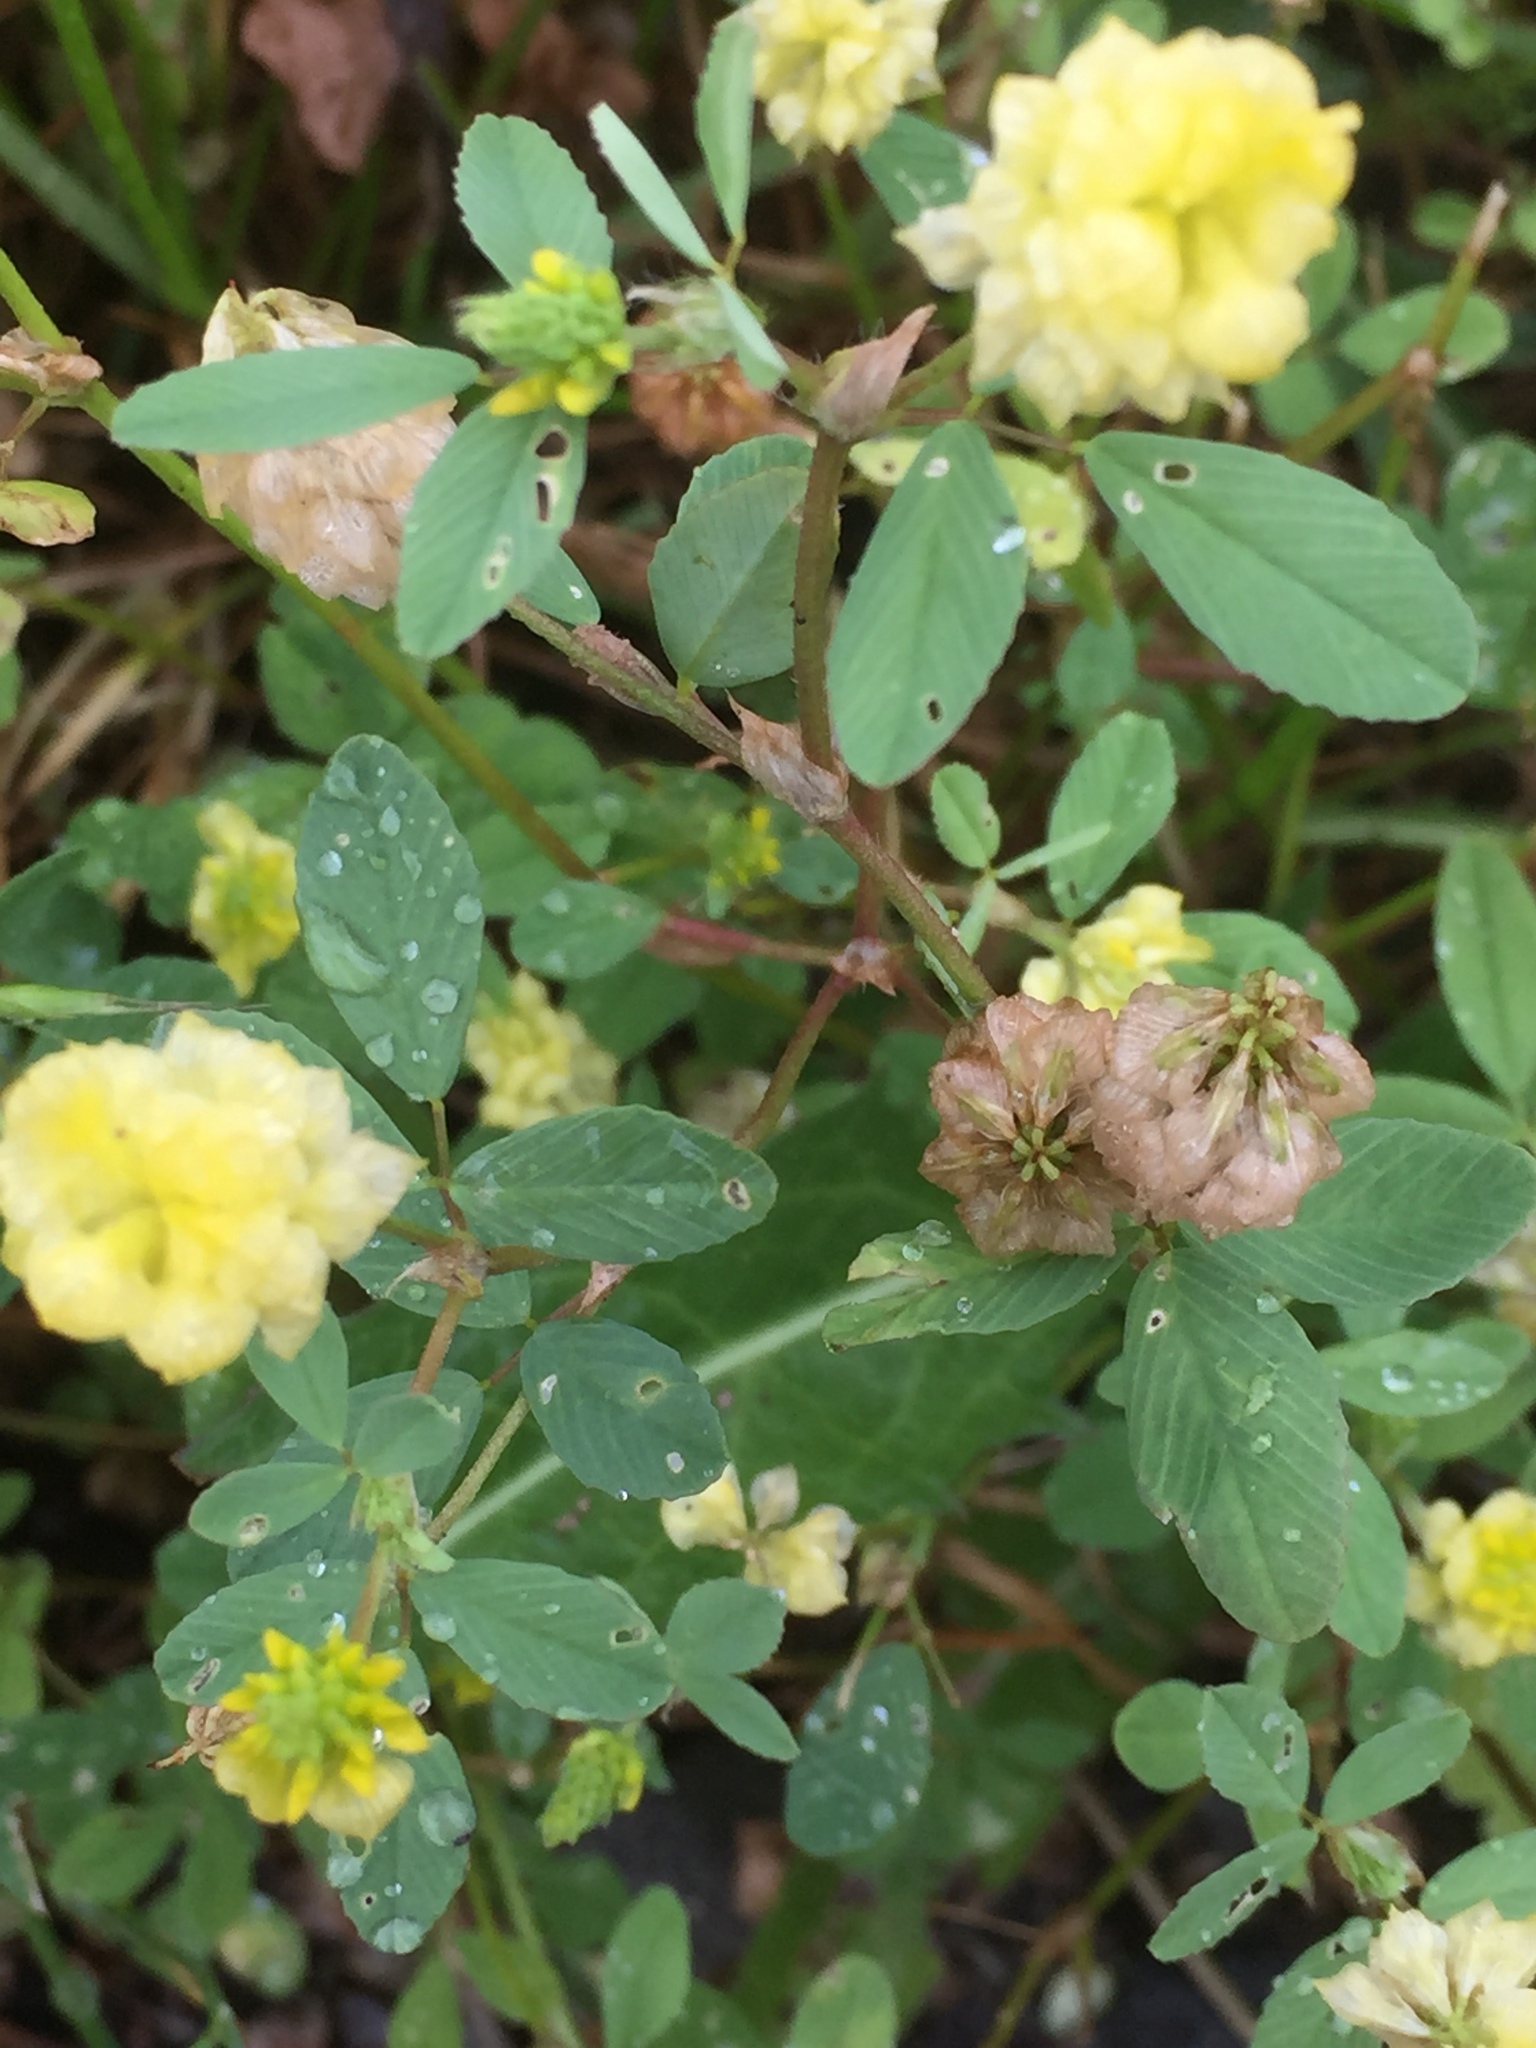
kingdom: Plantae
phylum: Tracheophyta
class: Magnoliopsida
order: Fabales
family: Fabaceae
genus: Trifolium
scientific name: Trifolium campestre
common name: Field clover
